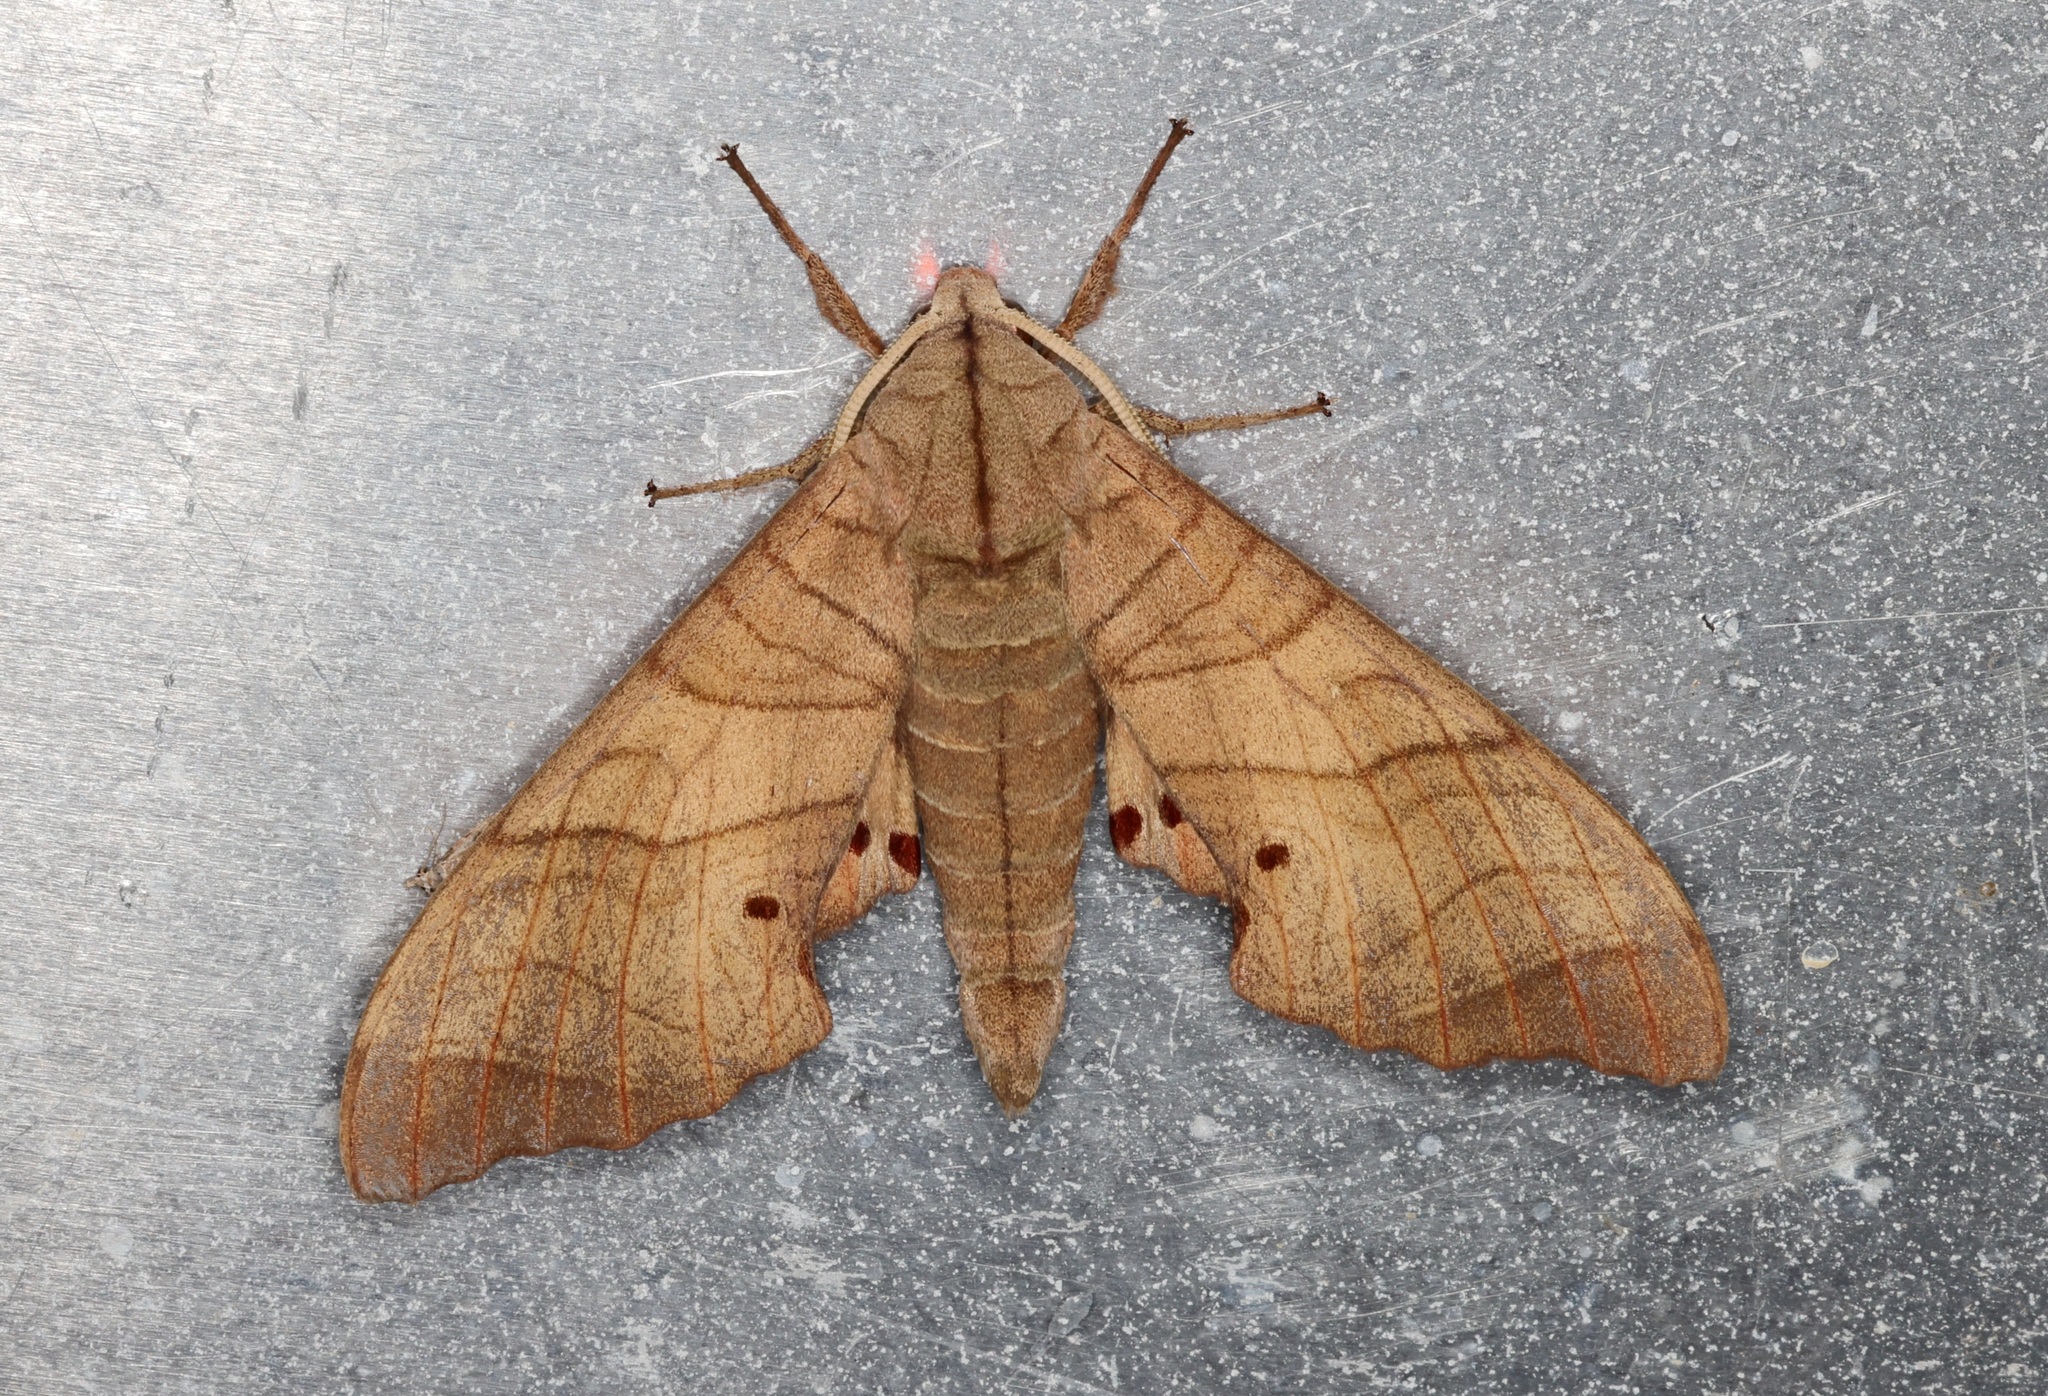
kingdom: Animalia
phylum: Arthropoda
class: Insecta
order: Lepidoptera
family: Sphingidae
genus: Marumba
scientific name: Marumba dyras
